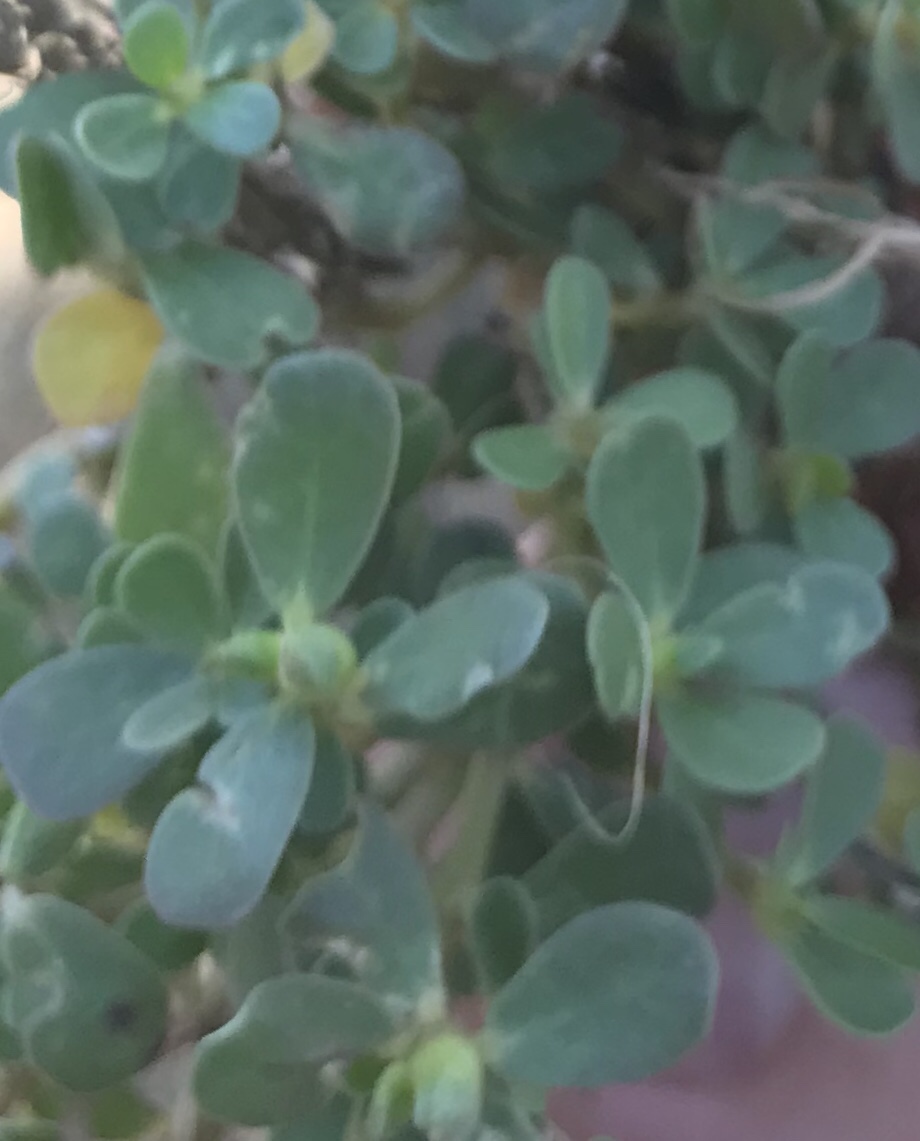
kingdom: Plantae
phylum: Tracheophyta
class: Magnoliopsida
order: Caryophyllales
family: Portulacaceae
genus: Portulaca
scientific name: Portulaca oleracea
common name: Common purslane
